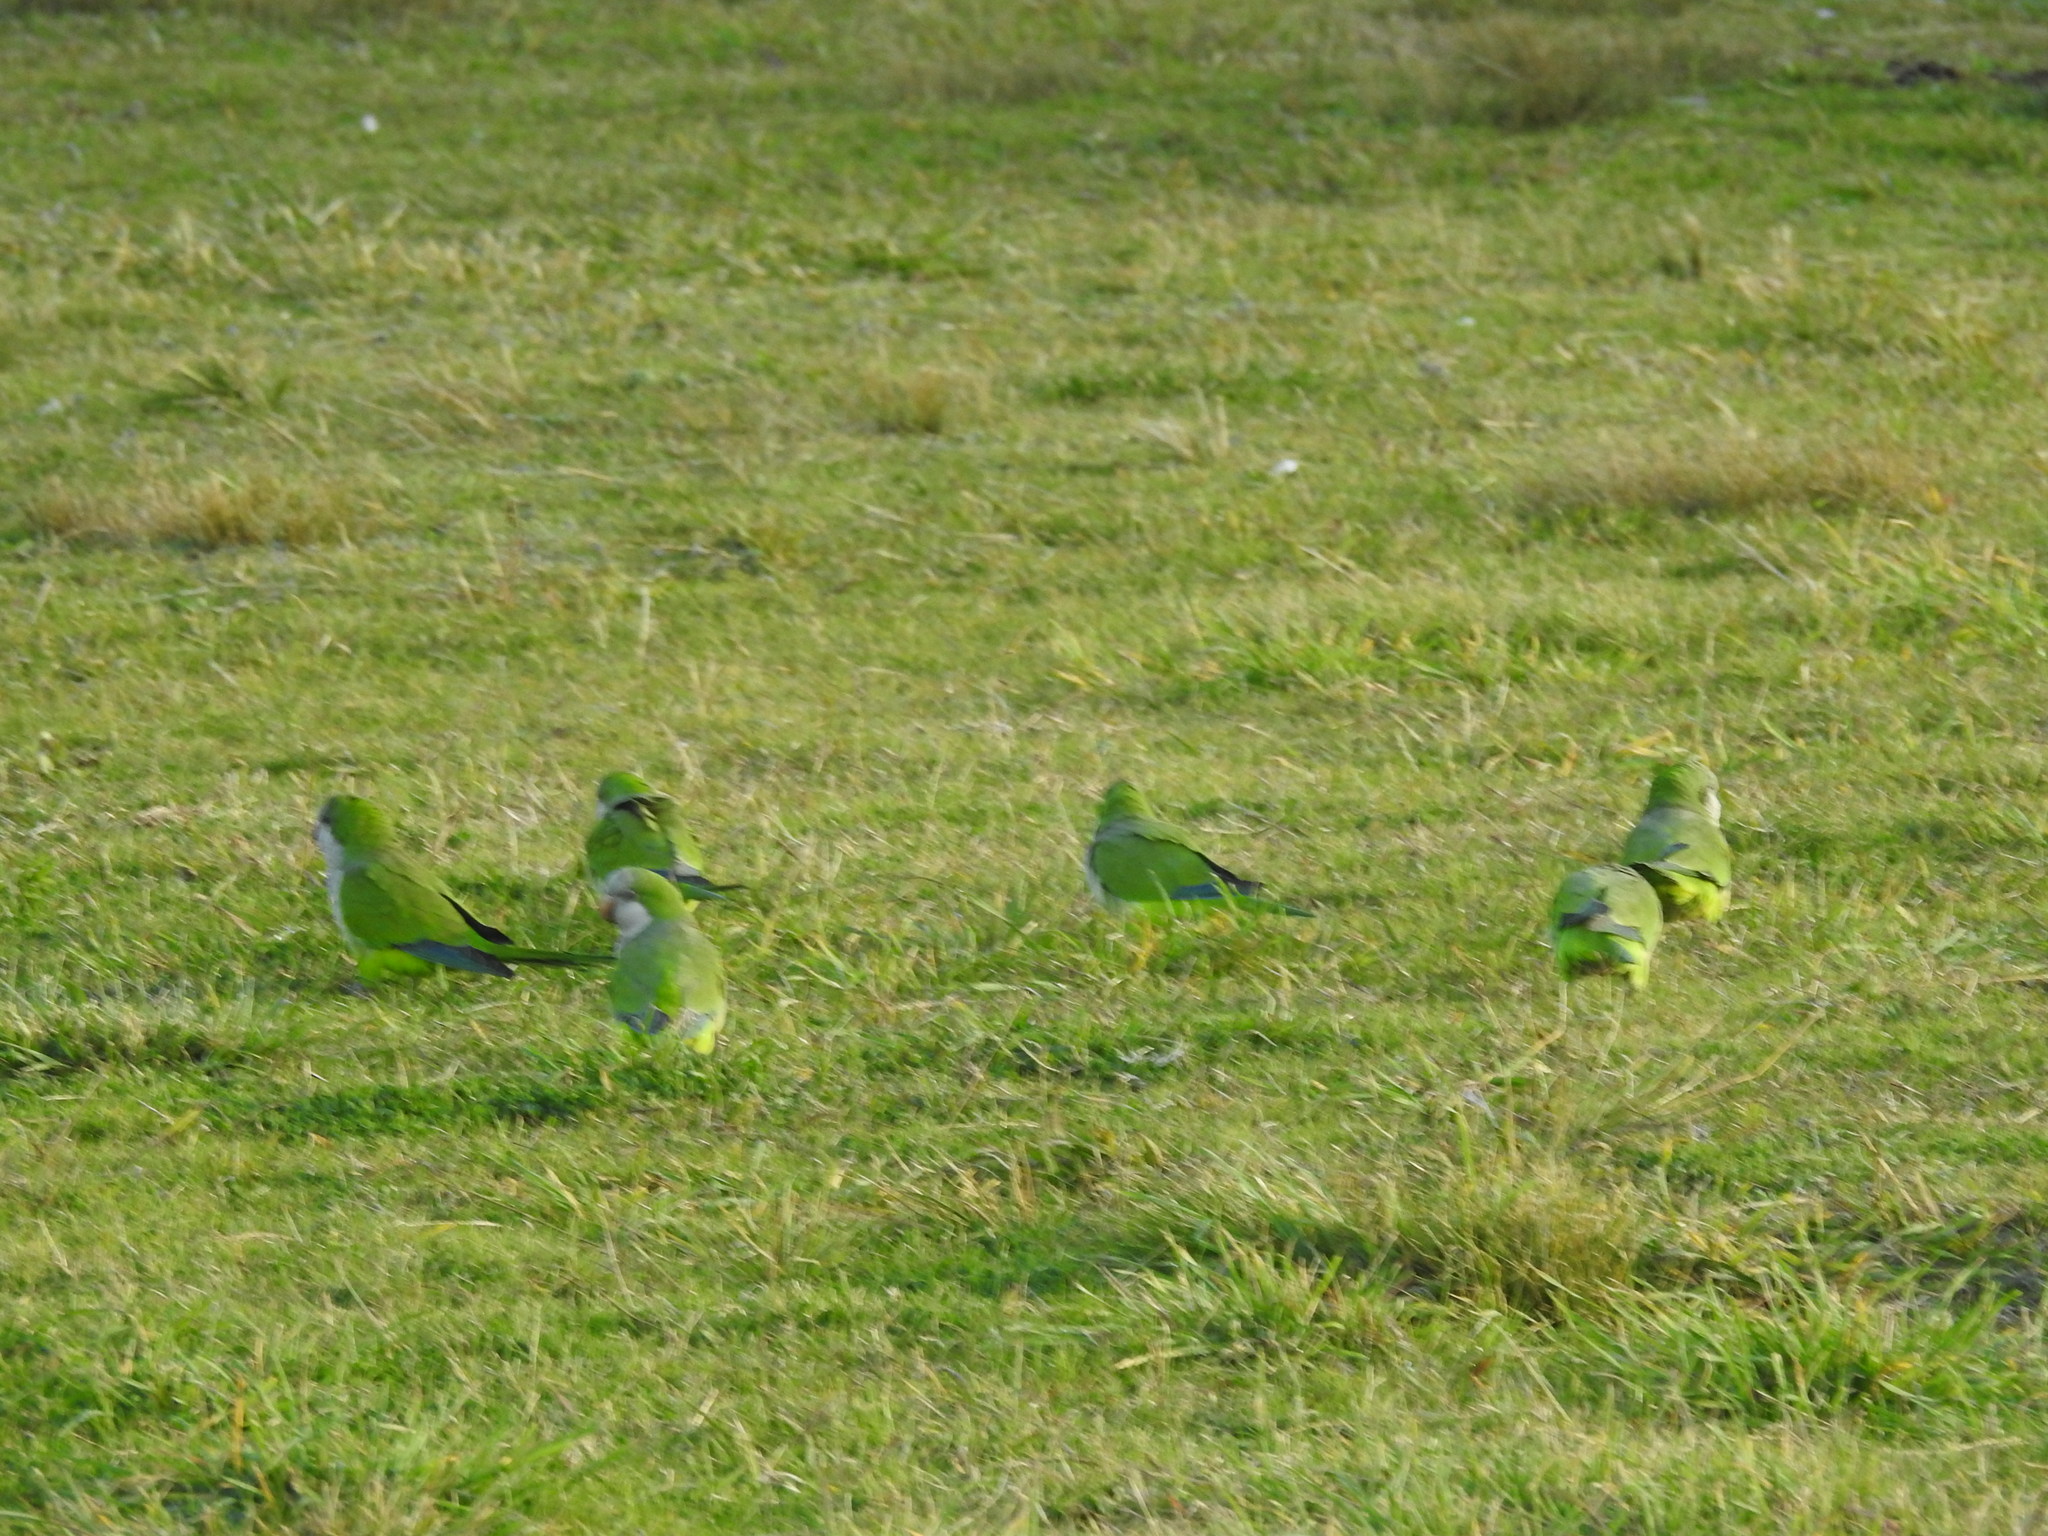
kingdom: Animalia
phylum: Chordata
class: Aves
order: Psittaciformes
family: Psittacidae
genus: Myiopsitta
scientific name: Myiopsitta monachus
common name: Monk parakeet
